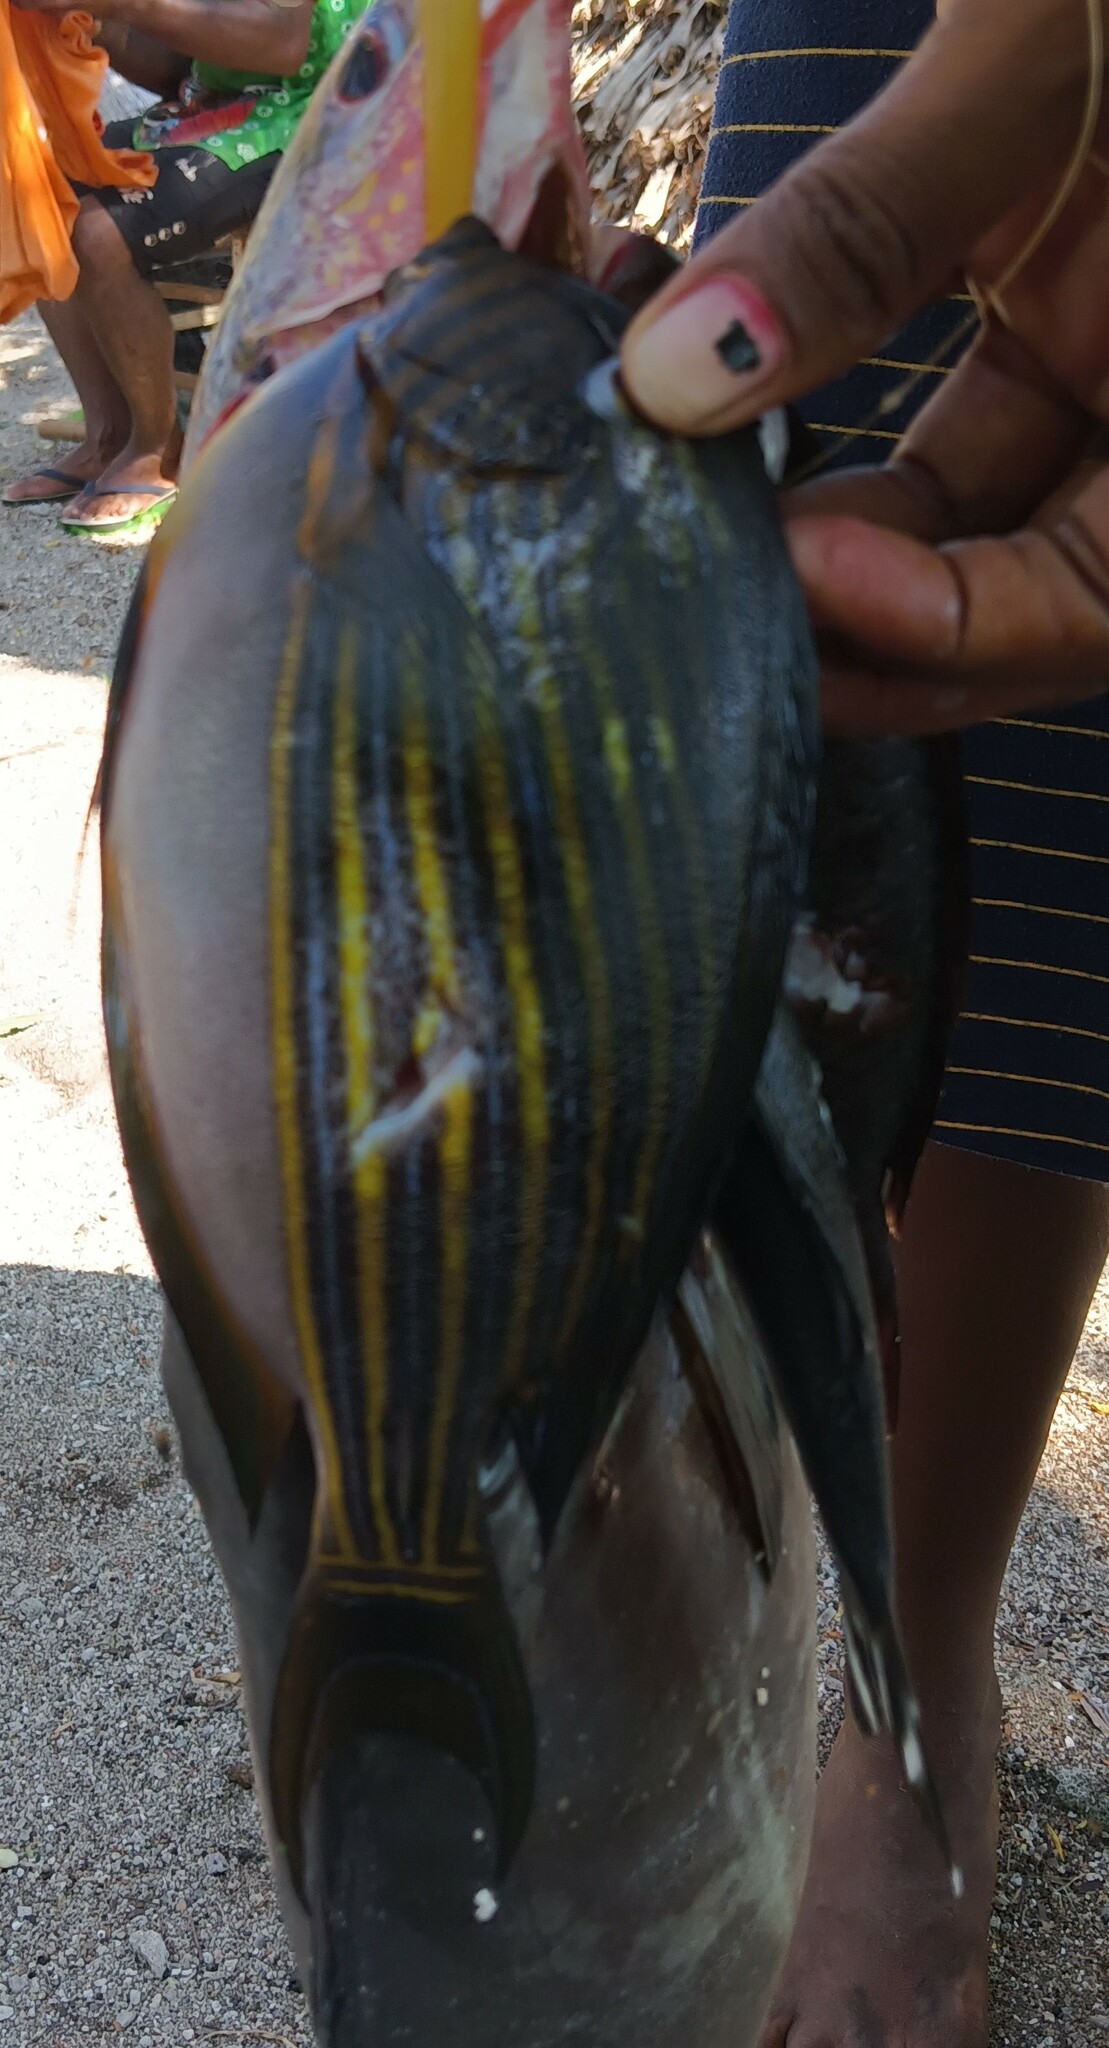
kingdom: Animalia
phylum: Chordata
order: Perciformes
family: Acanthuridae
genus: Acanthurus
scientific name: Acanthurus lineatus
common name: Striped surgeonfish
